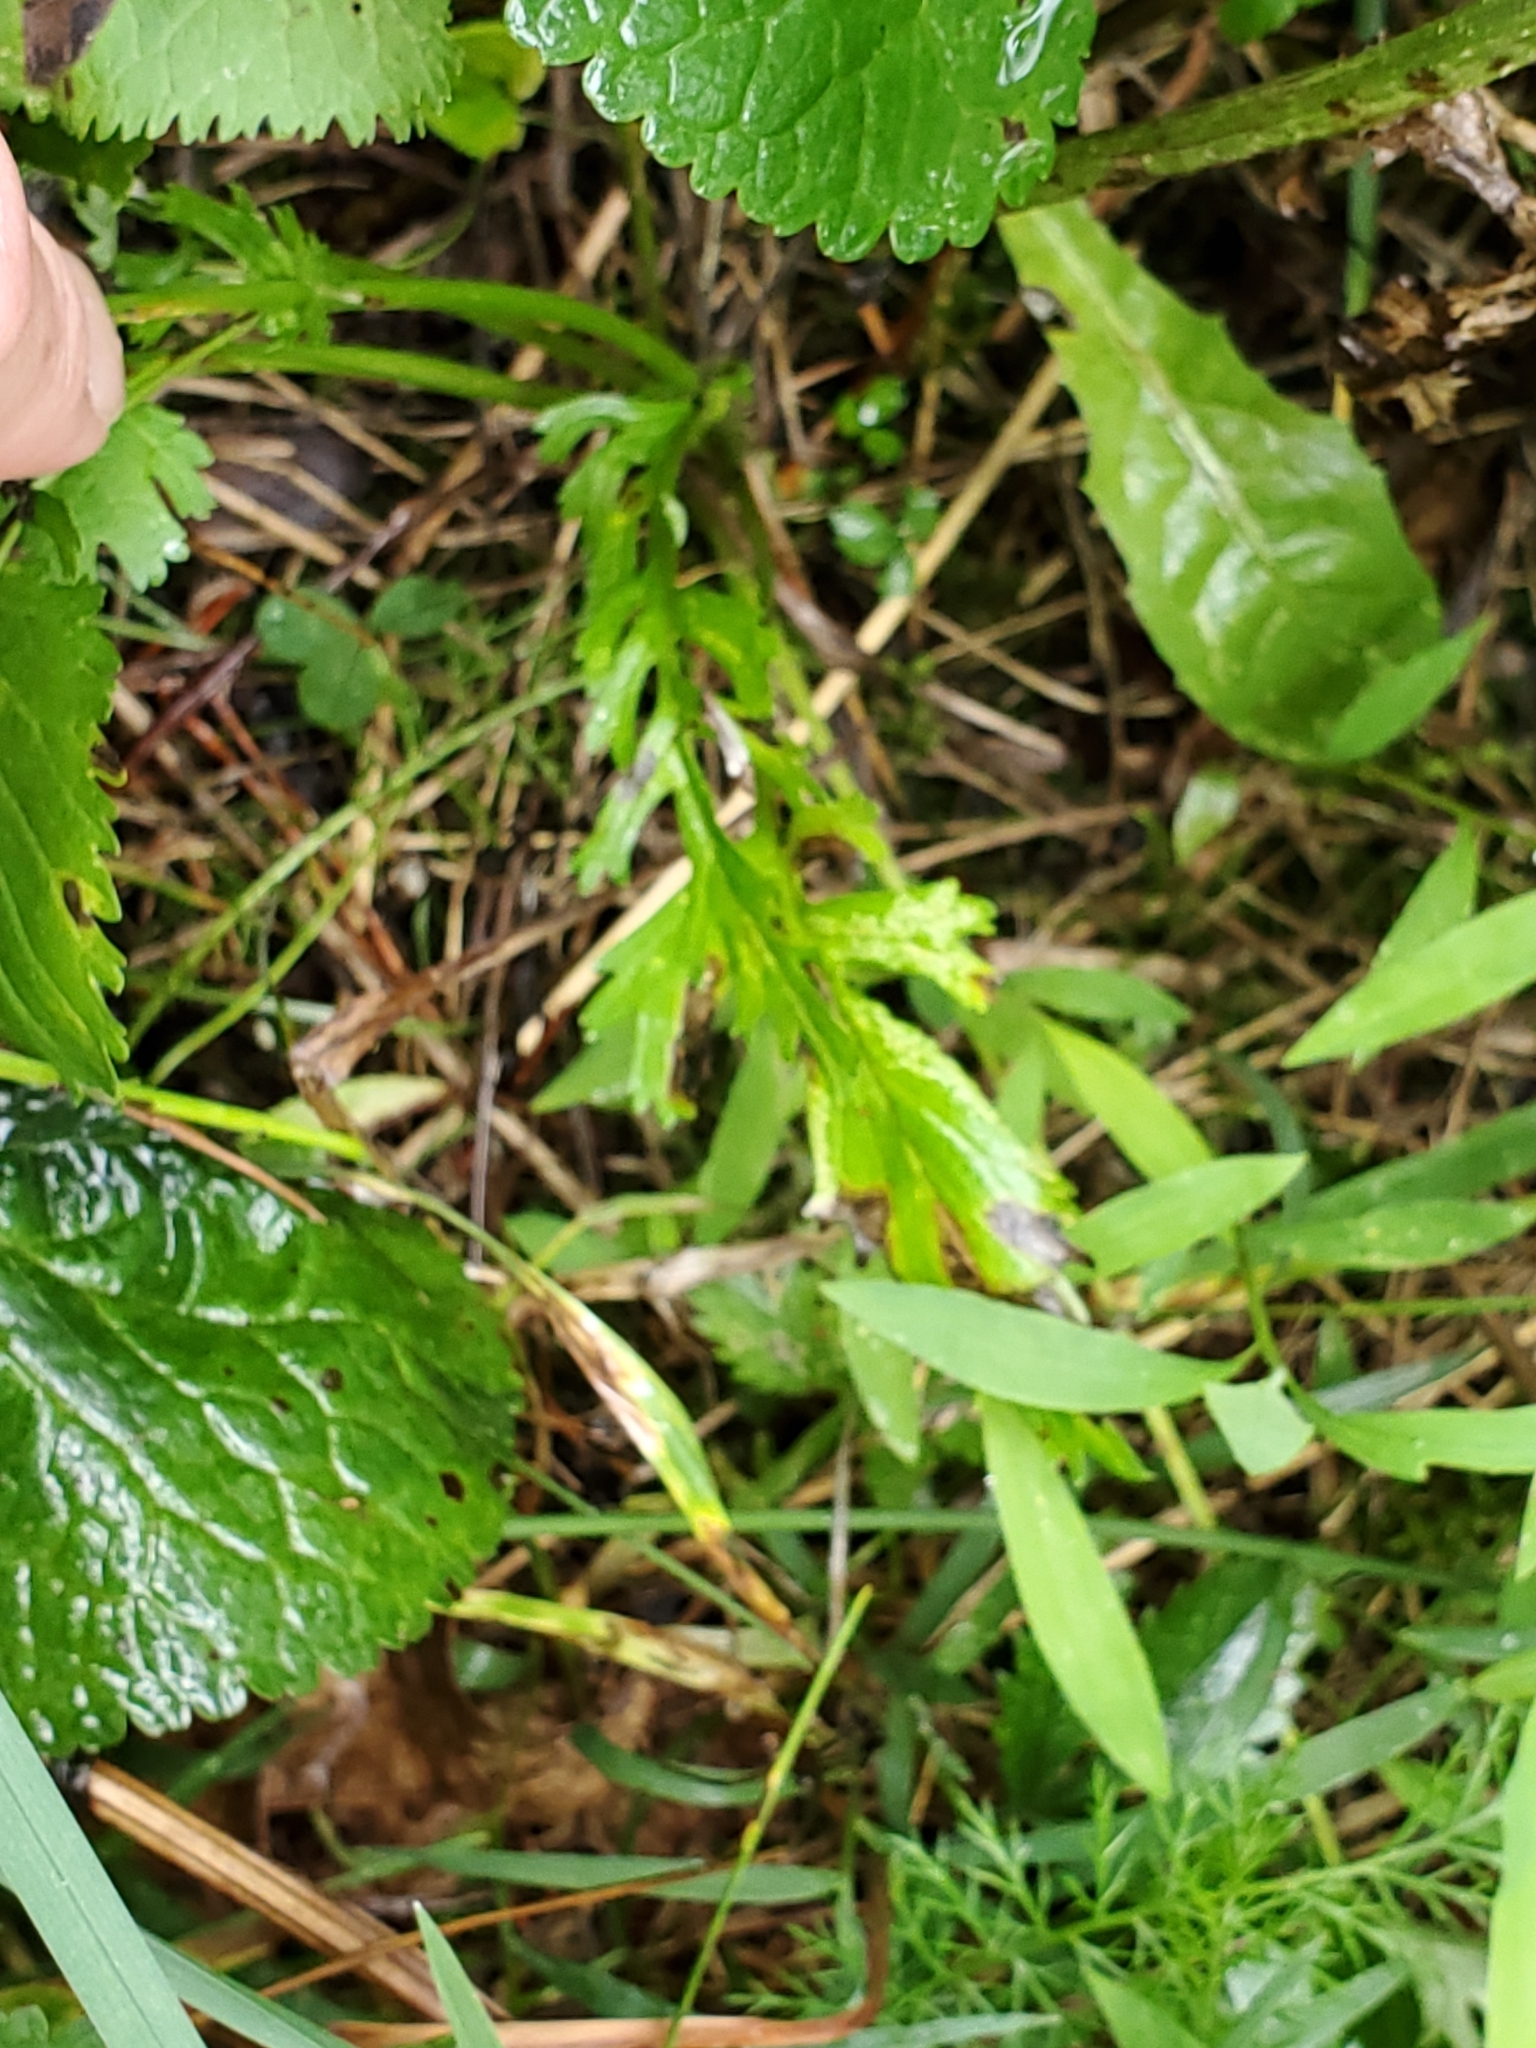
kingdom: Plantae
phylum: Tracheophyta
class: Magnoliopsida
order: Asterales
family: Asteraceae
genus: Packera
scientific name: Packera aurea
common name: Golden groundsel
